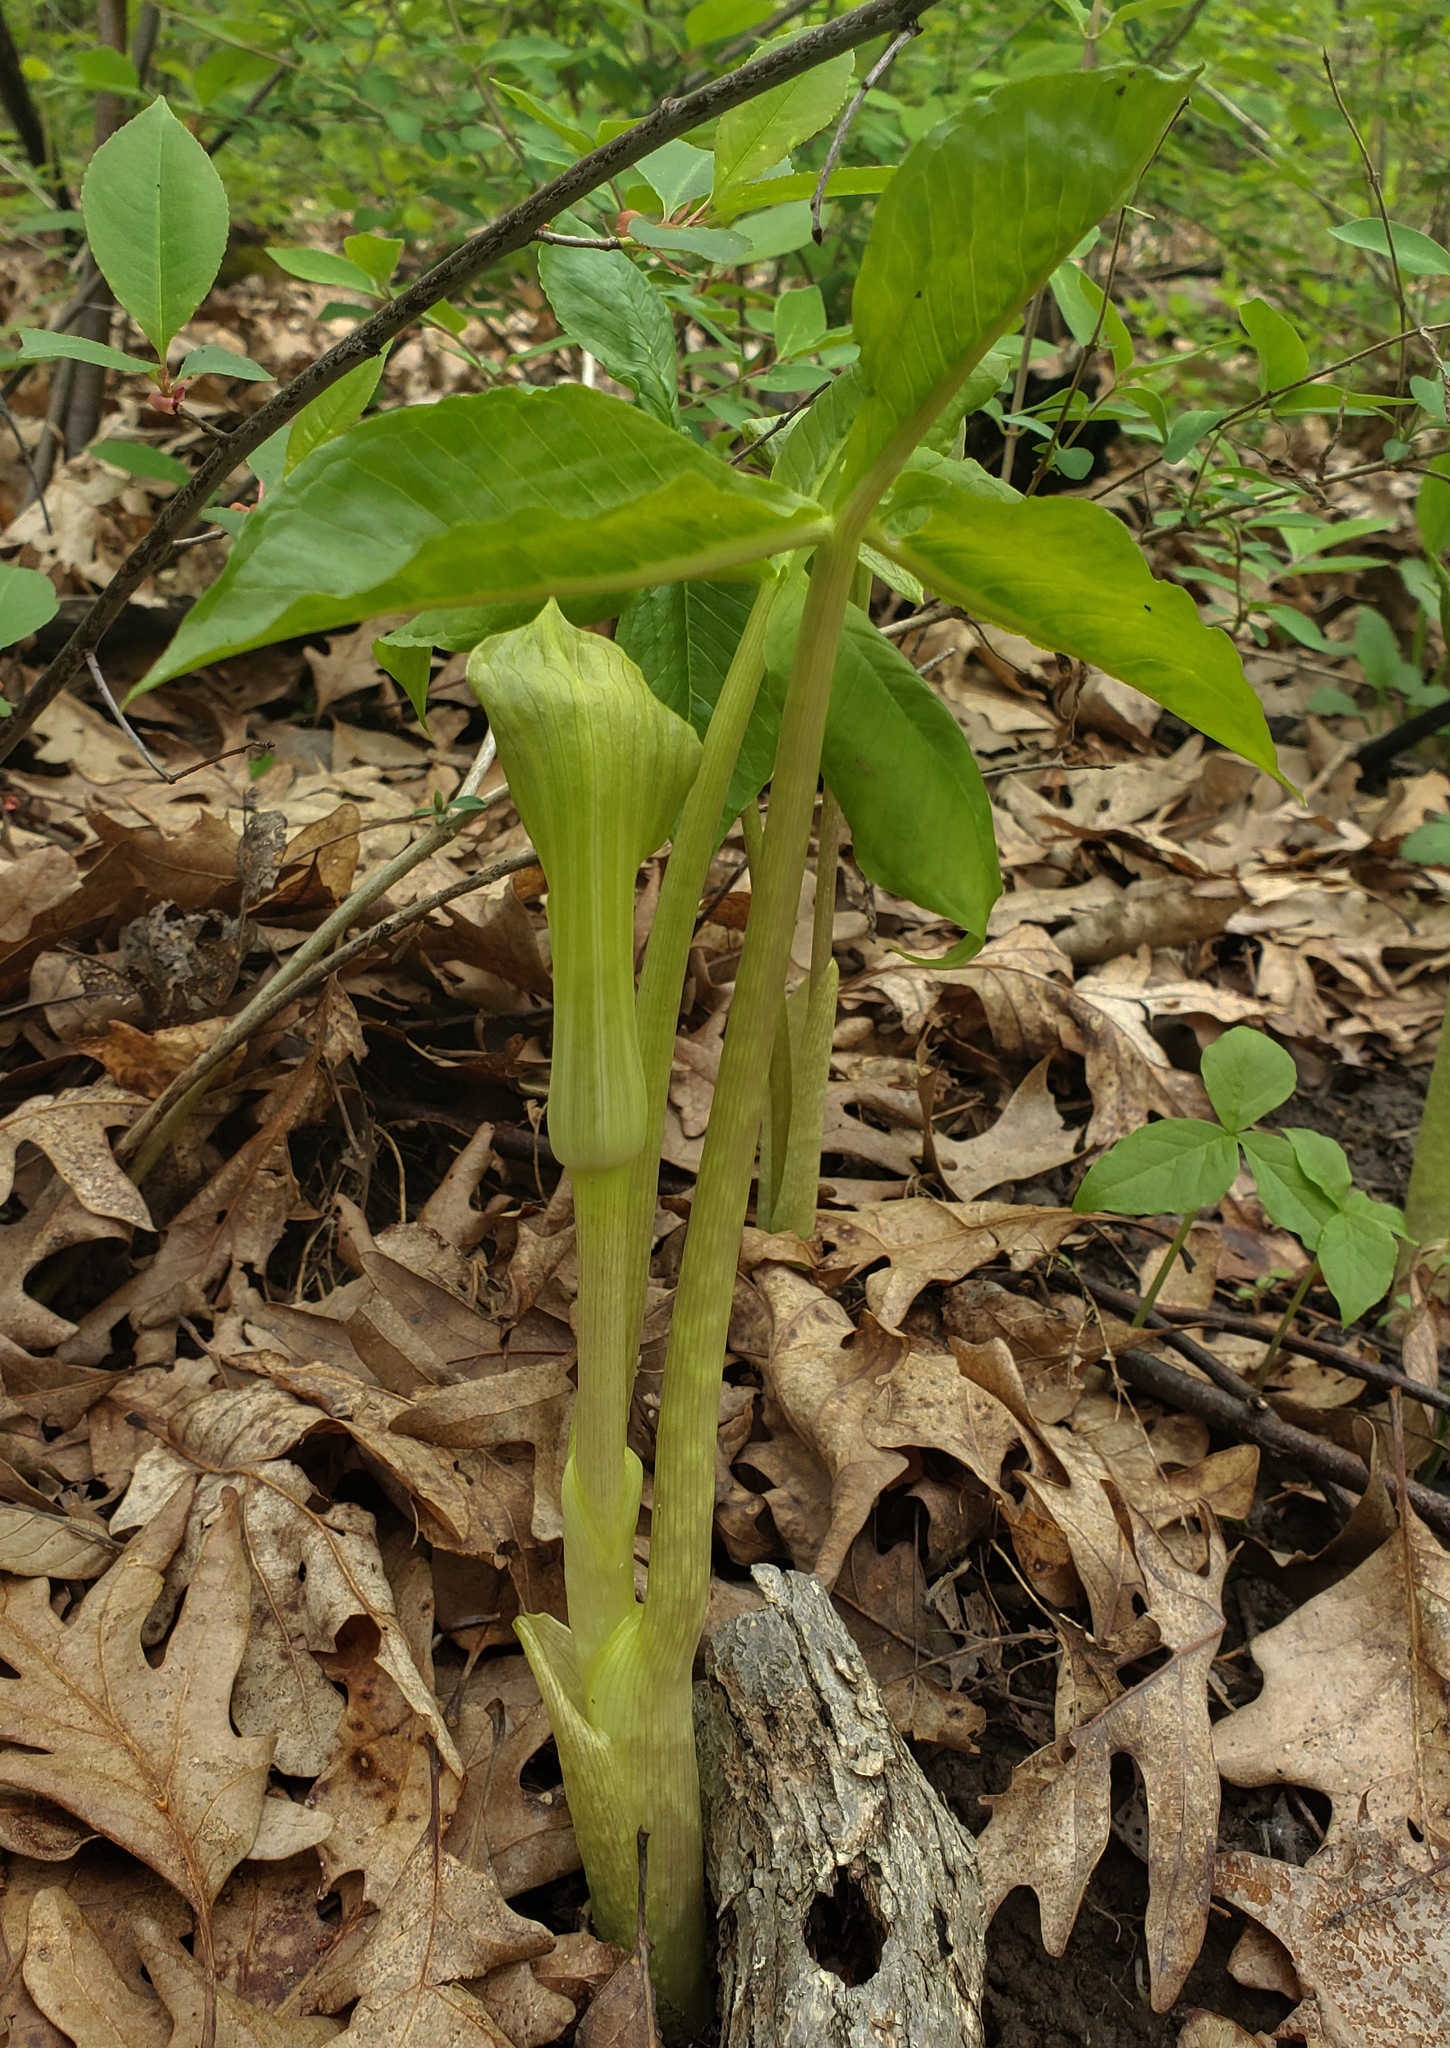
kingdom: Plantae
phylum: Tracheophyta
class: Liliopsida
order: Alismatales
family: Araceae
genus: Arisaema
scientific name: Arisaema triphyllum
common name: Jack-in-the-pulpit
